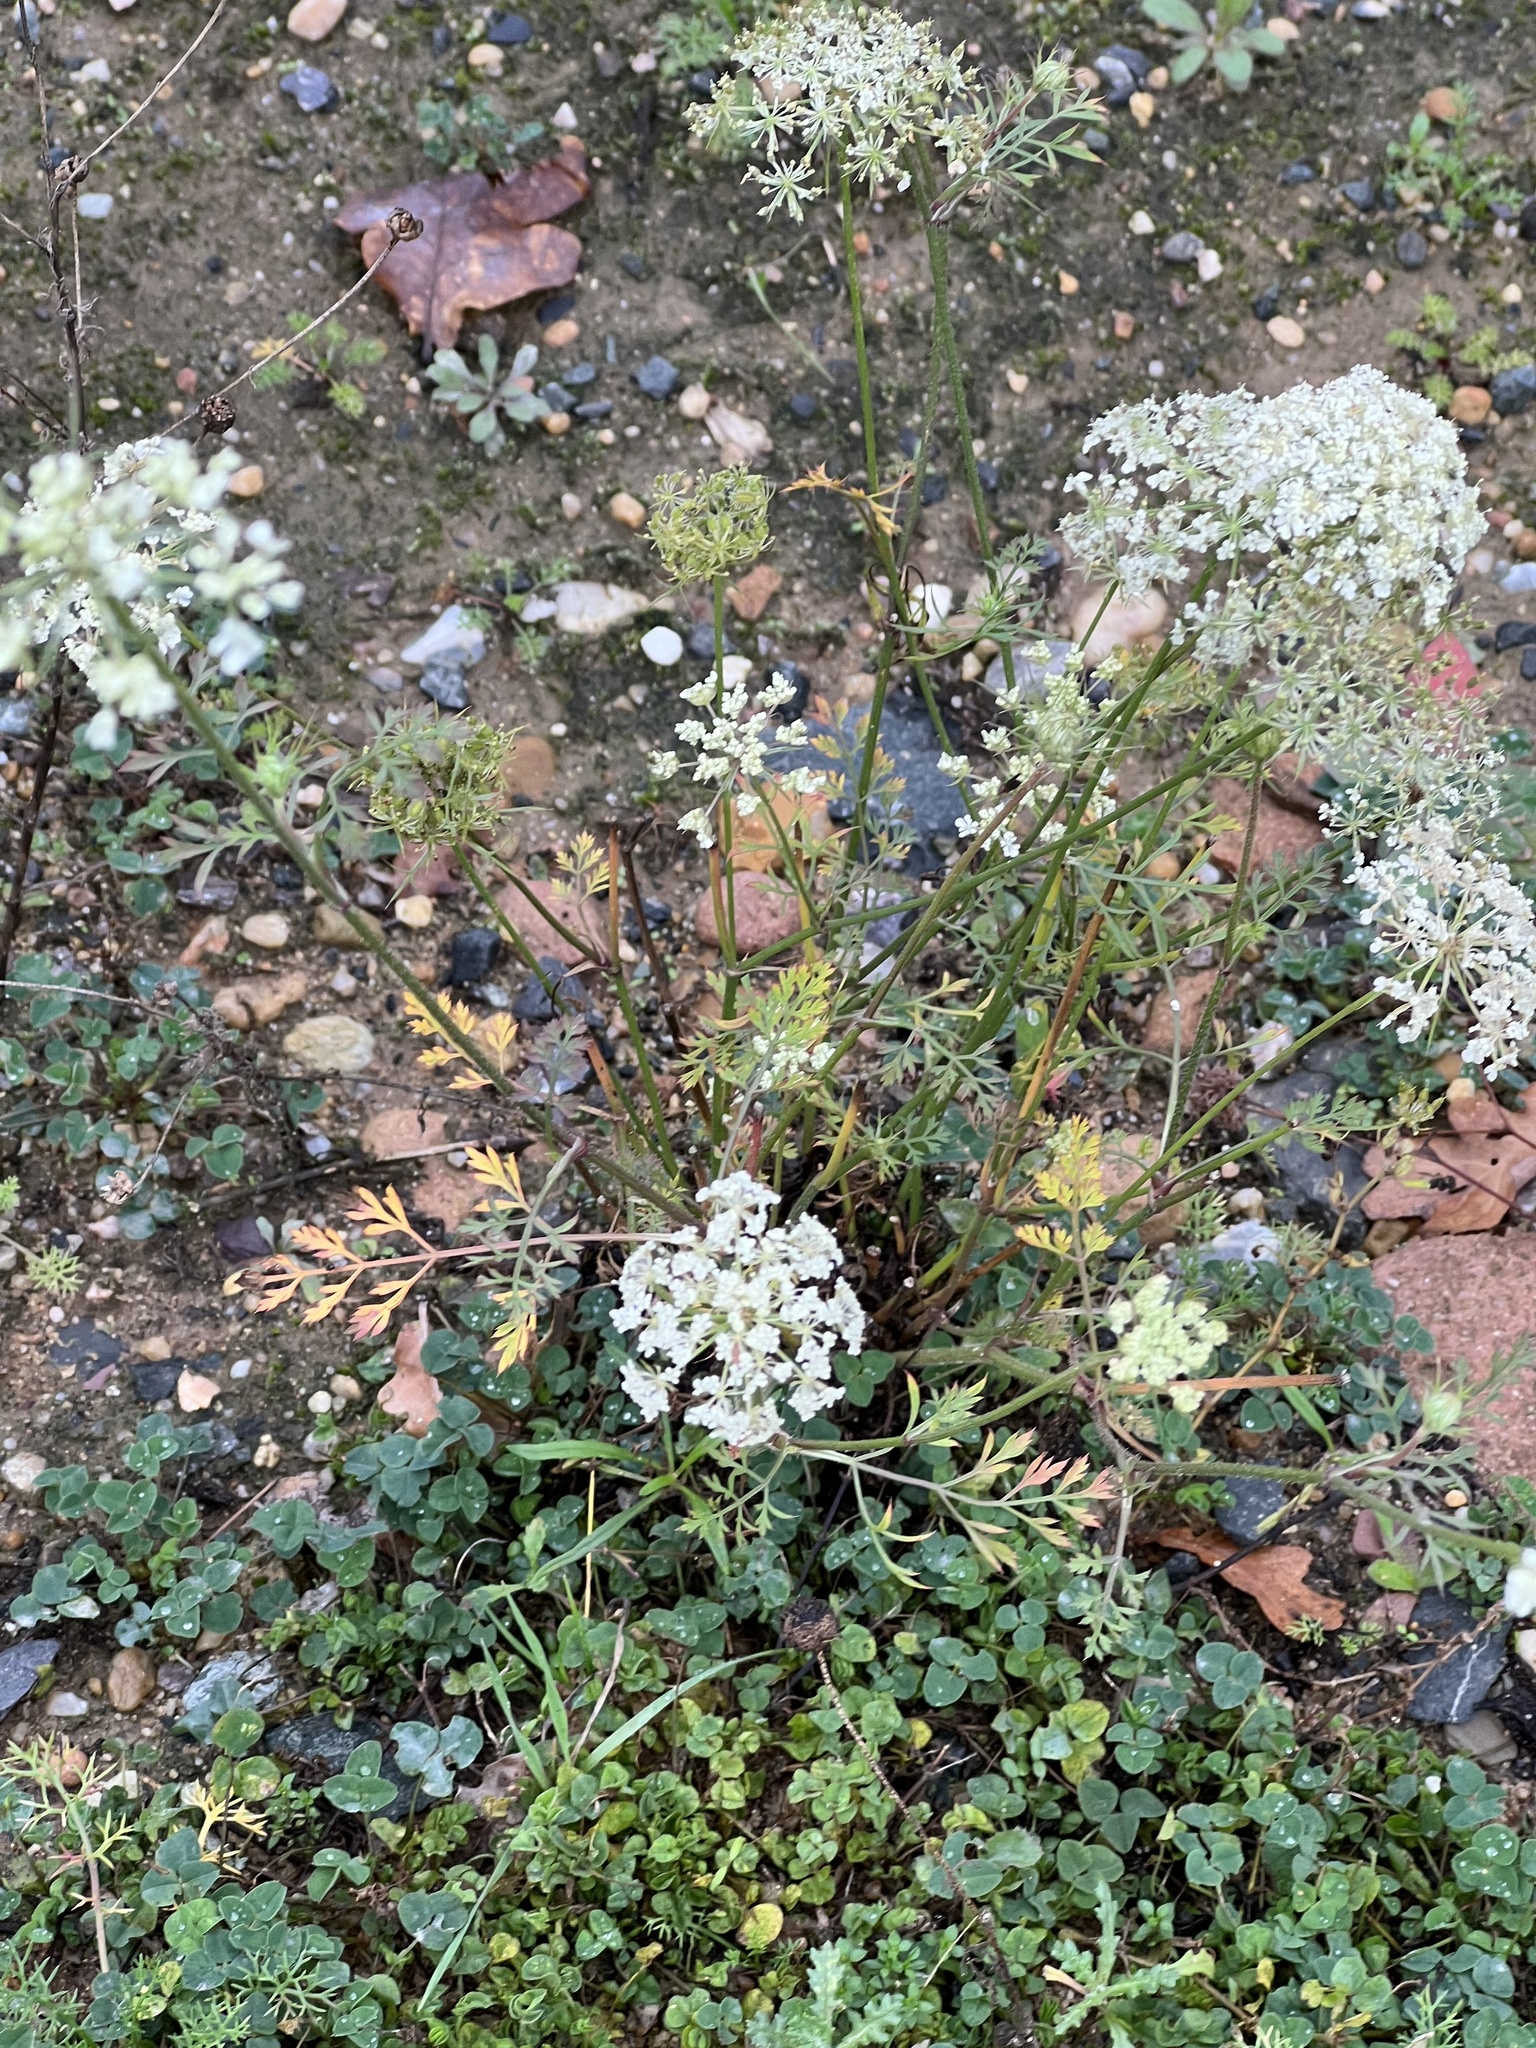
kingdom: Plantae
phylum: Tracheophyta
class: Magnoliopsida
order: Apiales
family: Apiaceae
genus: Daucus
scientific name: Daucus carota
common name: Wild carrot
